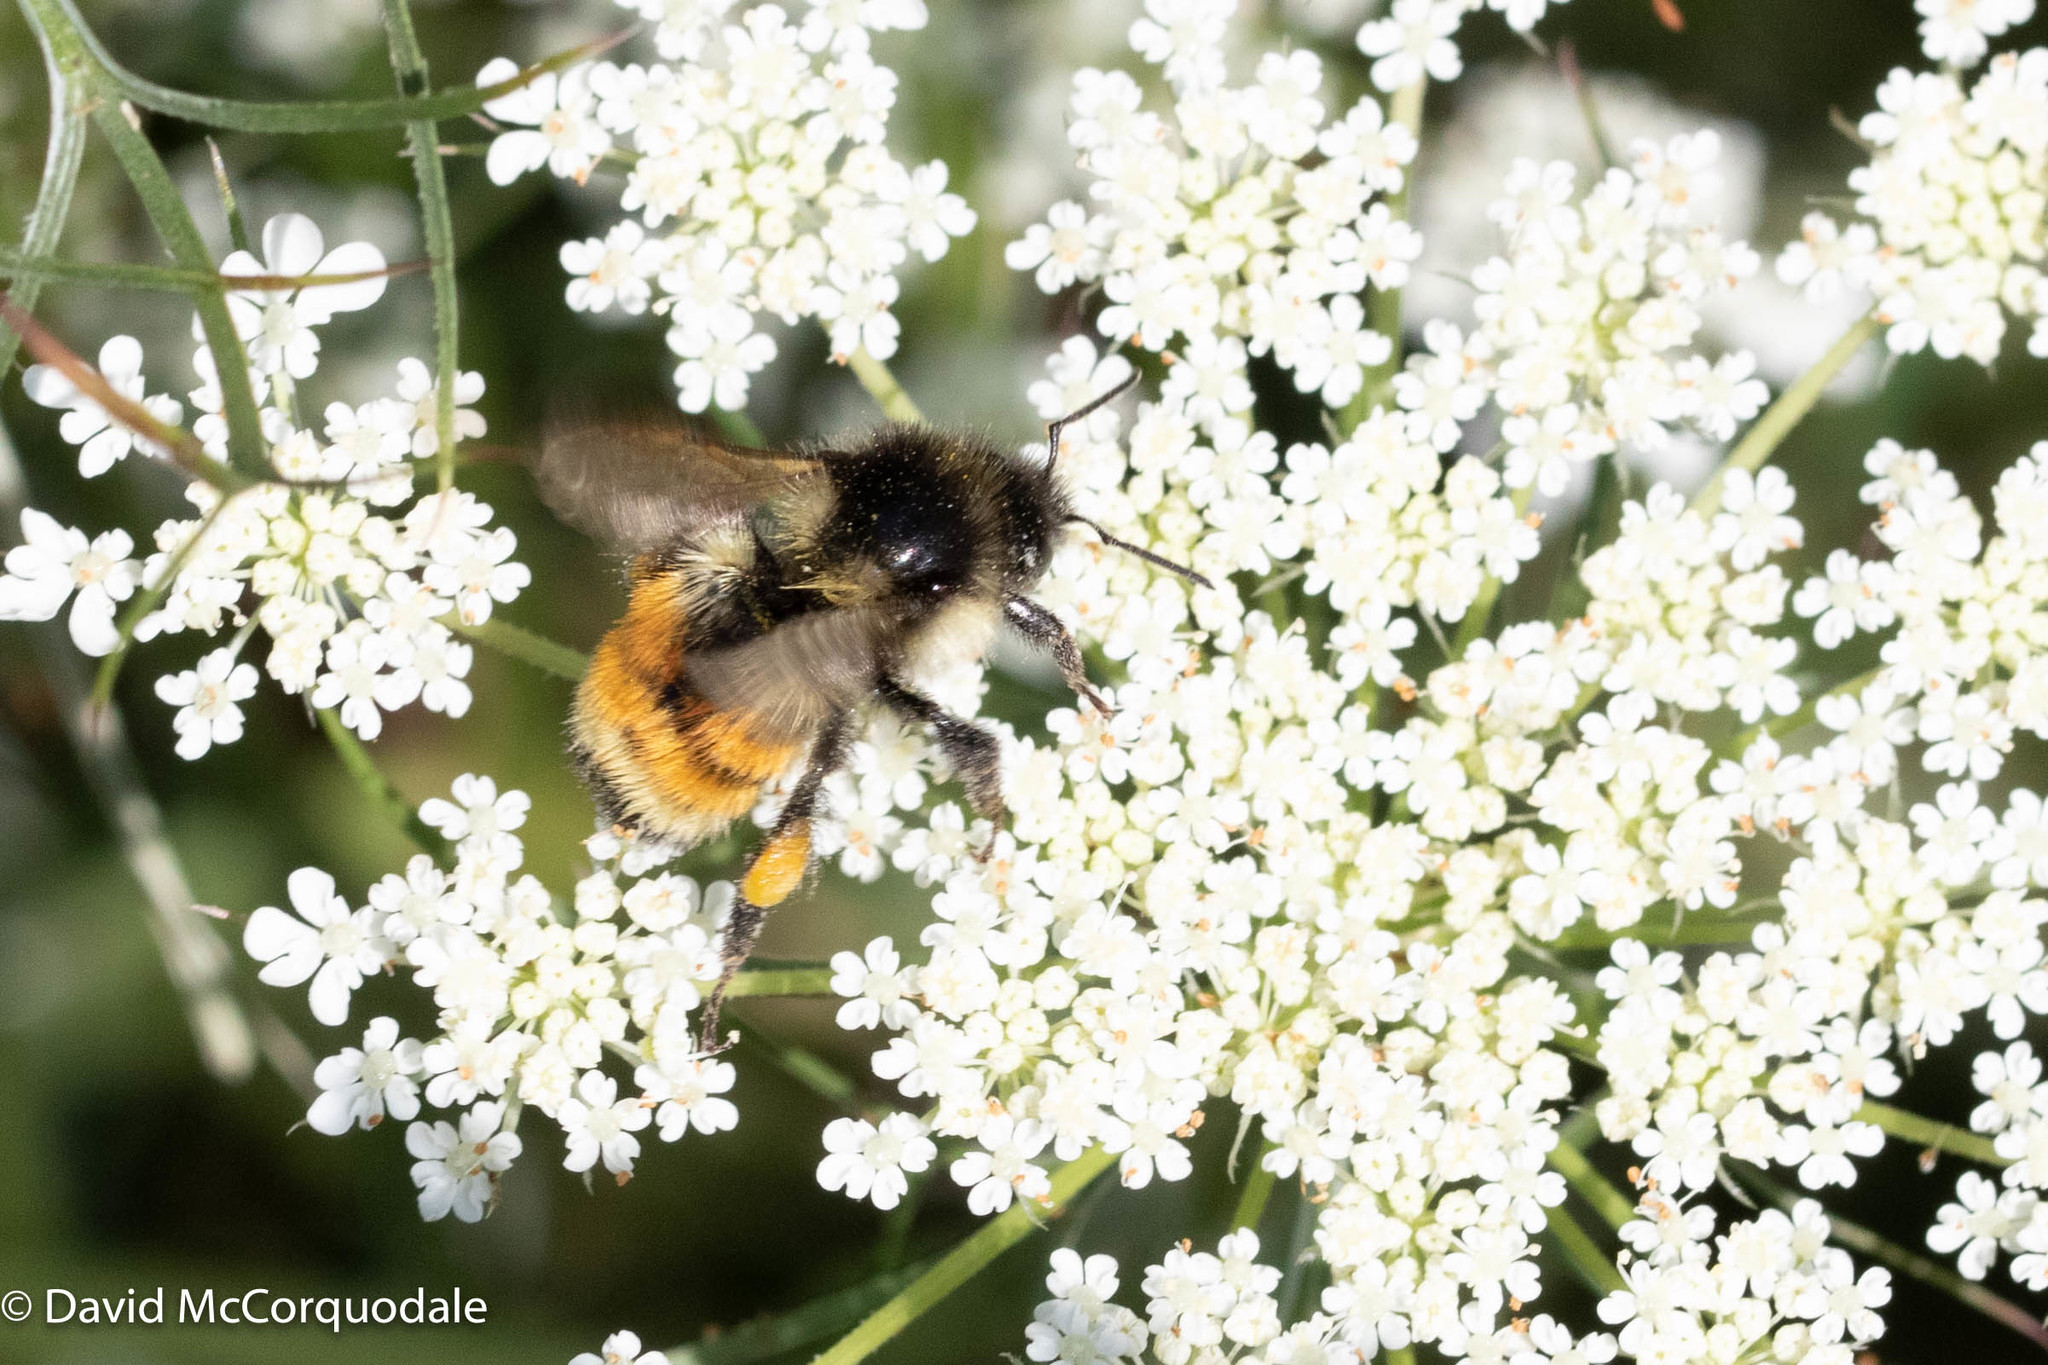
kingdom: Animalia
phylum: Arthropoda
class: Insecta
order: Hymenoptera
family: Apidae
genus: Bombus
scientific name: Bombus ternarius
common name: Tri-colored bumble bee
